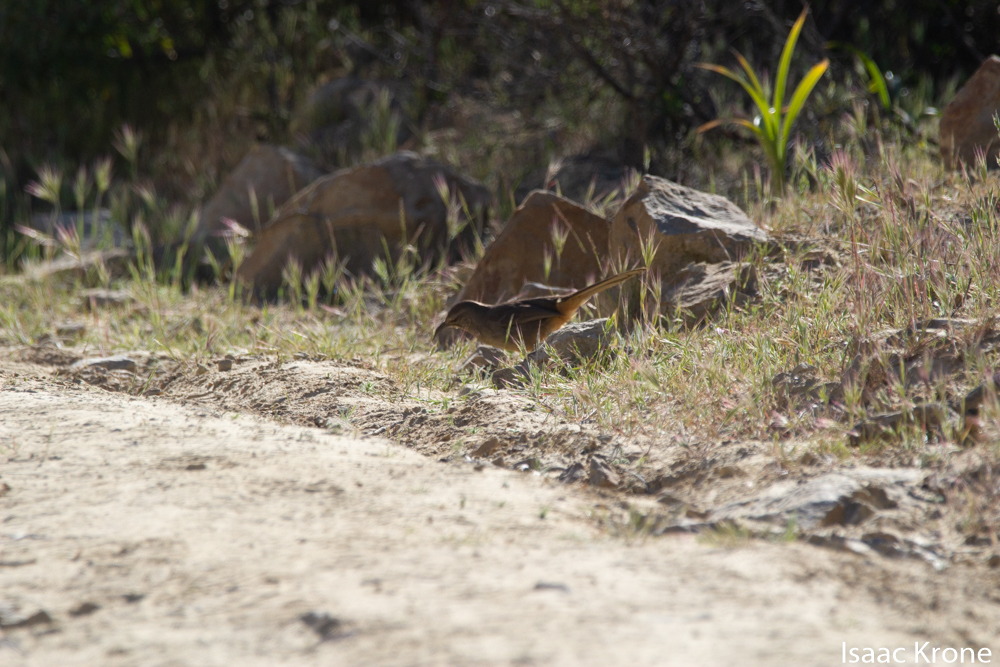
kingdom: Animalia
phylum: Chordata
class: Aves
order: Passeriformes
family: Mimidae
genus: Toxostoma
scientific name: Toxostoma redivivum
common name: California thrasher
